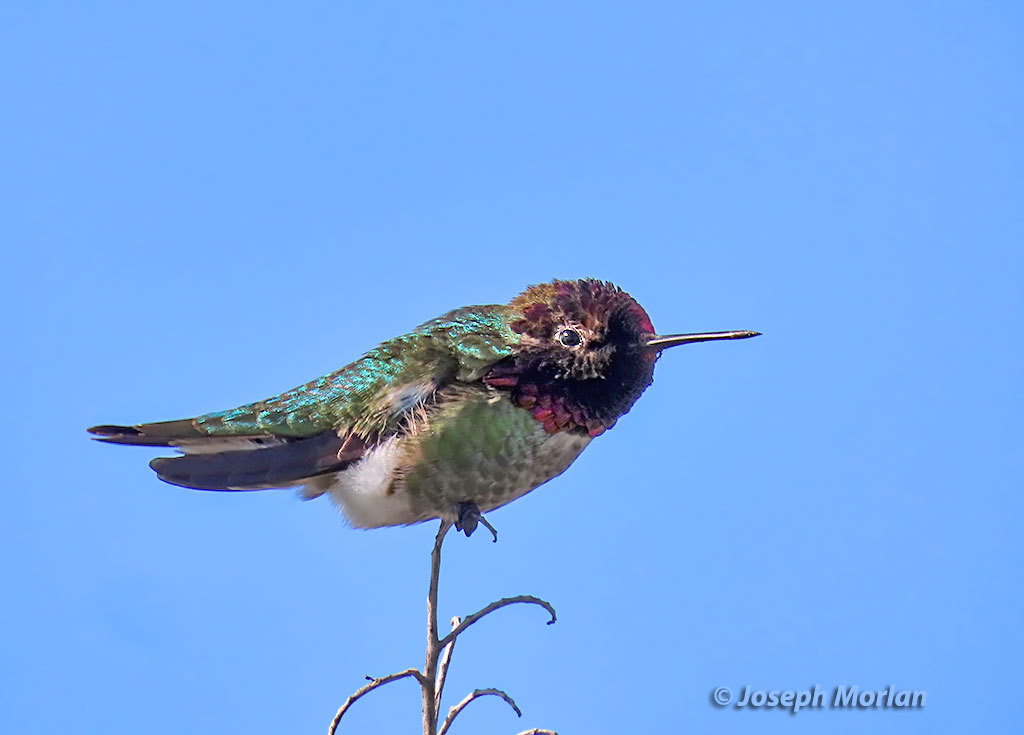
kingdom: Animalia
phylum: Chordata
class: Aves
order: Apodiformes
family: Trochilidae
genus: Calypte
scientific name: Calypte anna
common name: Anna's hummingbird
